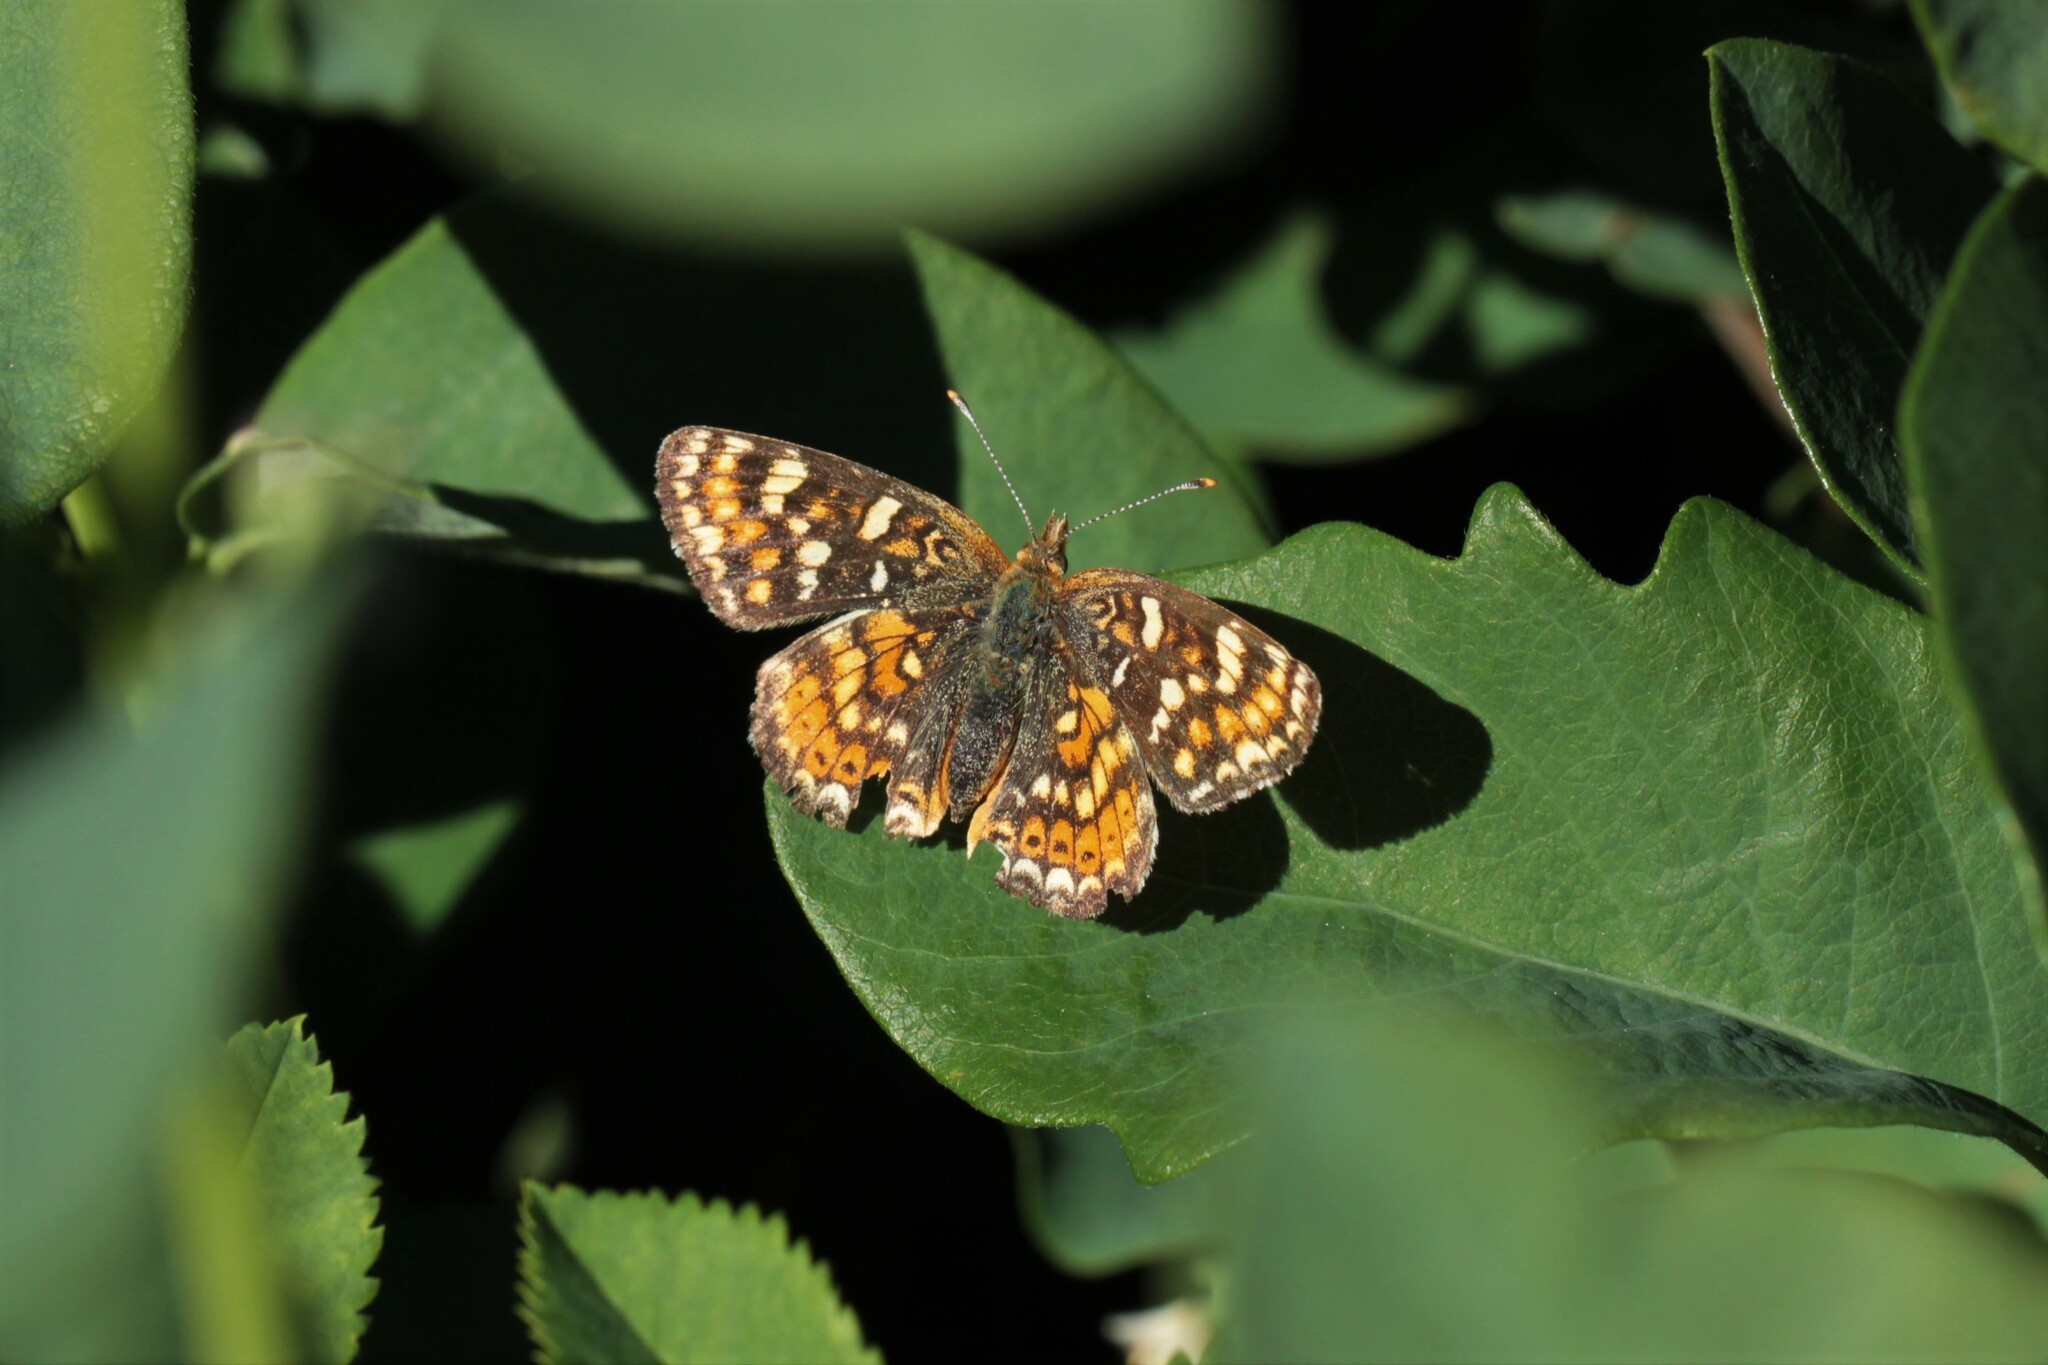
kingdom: Animalia
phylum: Arthropoda
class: Insecta
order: Lepidoptera
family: Nymphalidae
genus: Phyciodes
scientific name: Phyciodes tharos
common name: Pearl crescent
